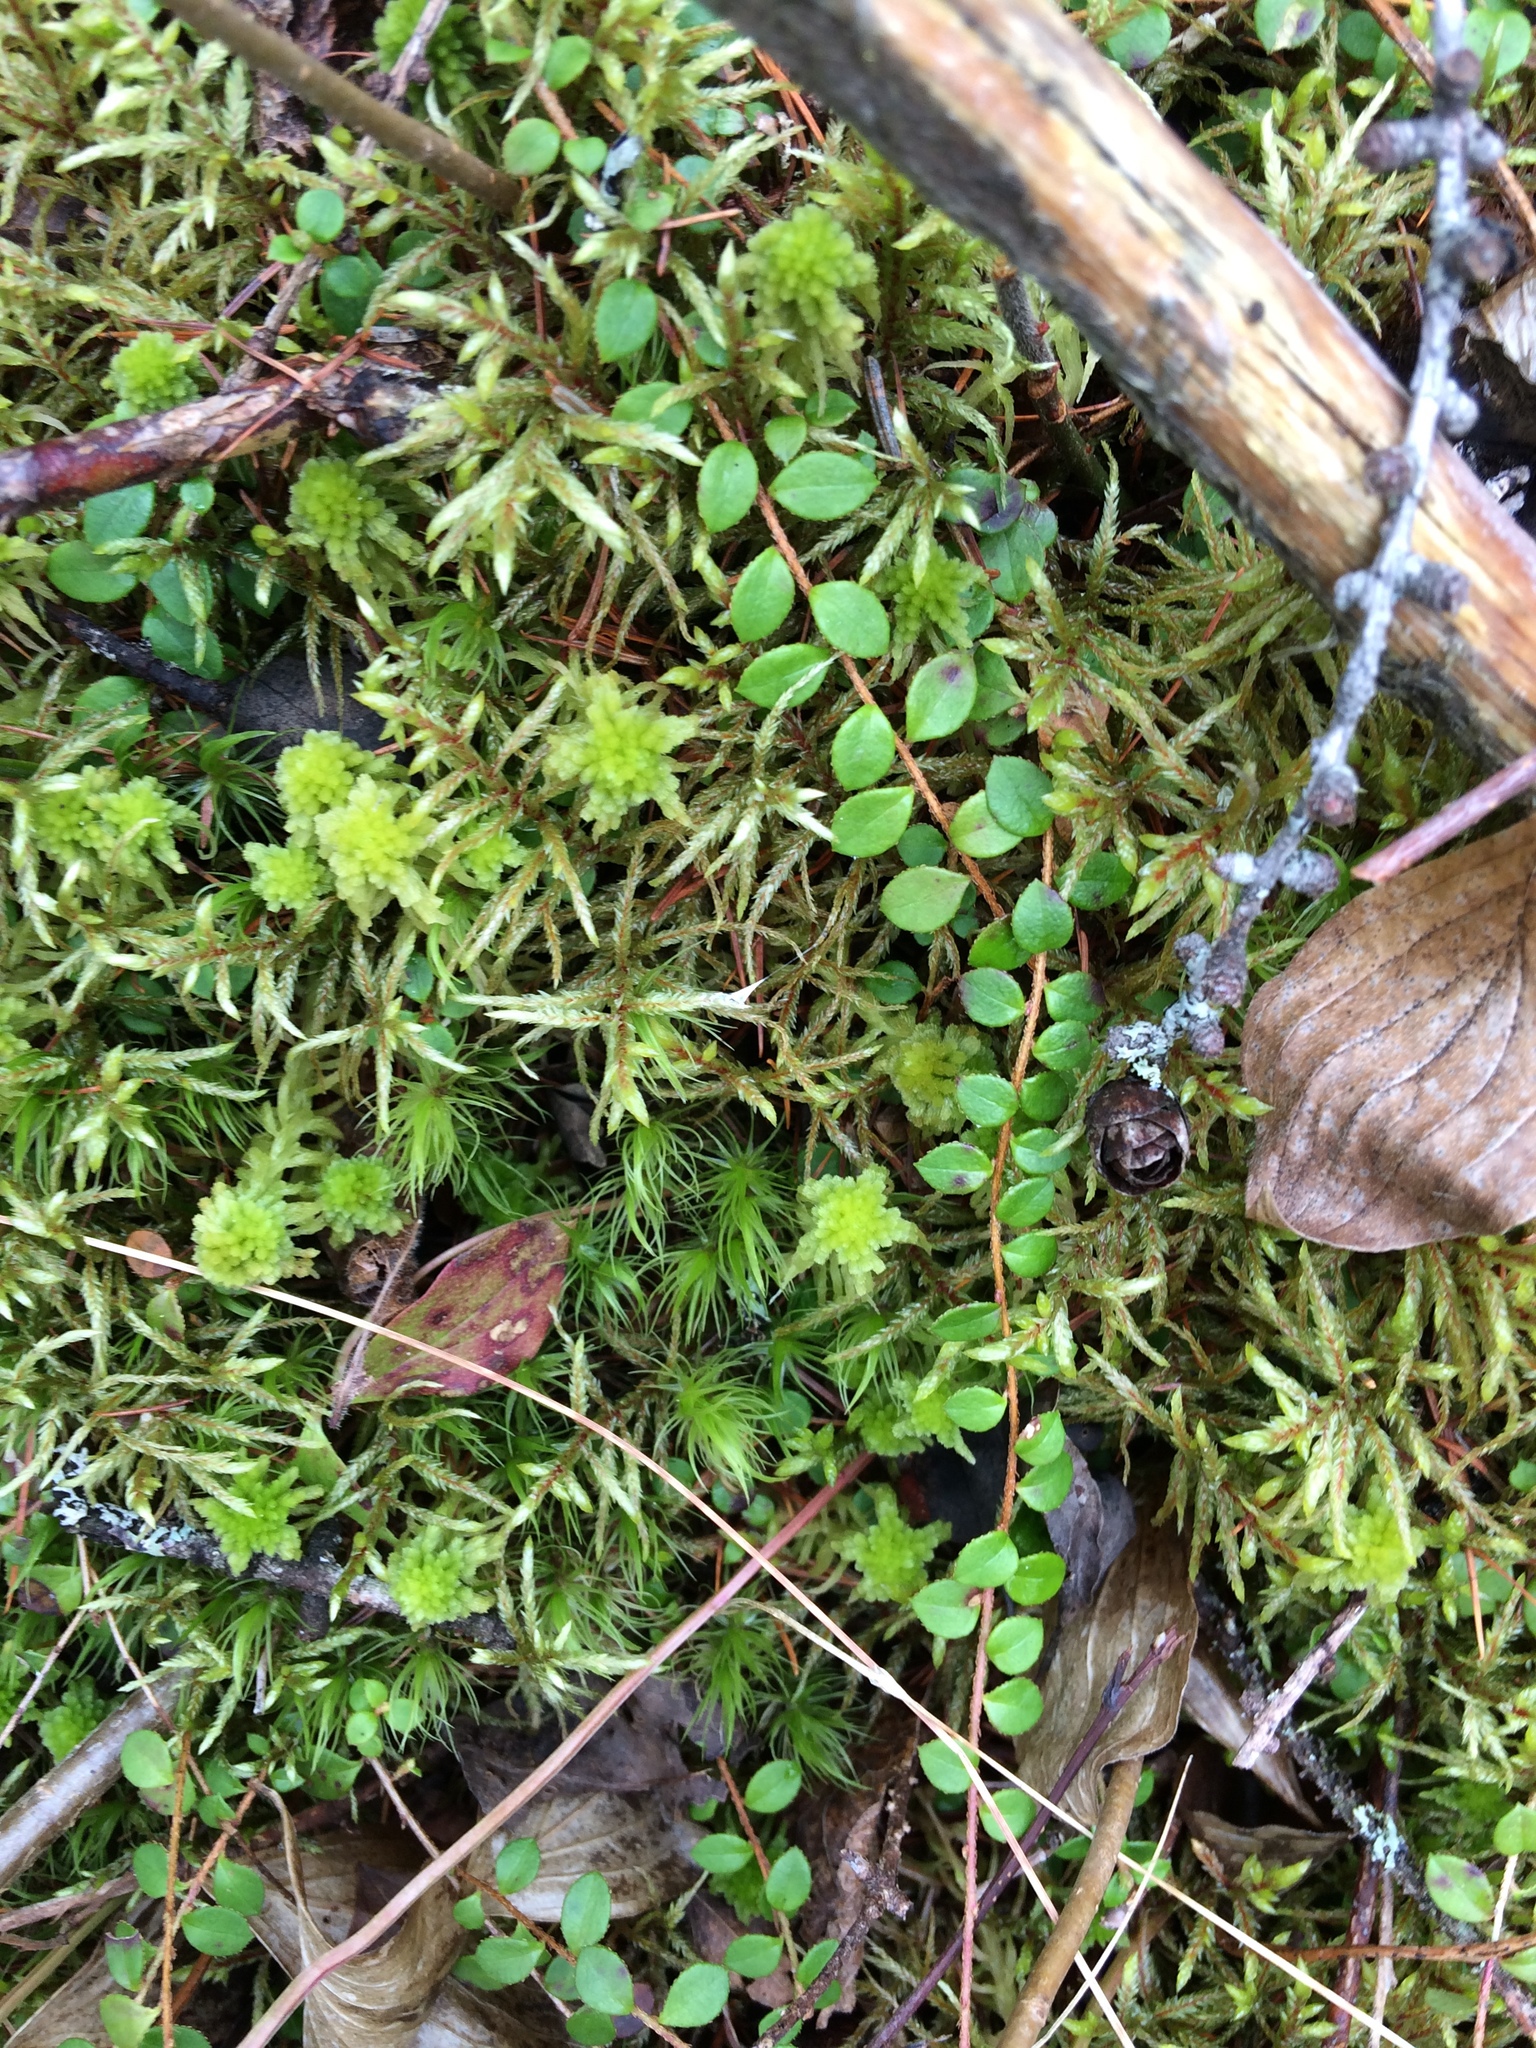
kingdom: Plantae
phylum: Tracheophyta
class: Magnoliopsida
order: Ericales
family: Ericaceae
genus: Gaultheria
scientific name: Gaultheria hispidula
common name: Cancer wintergreen
